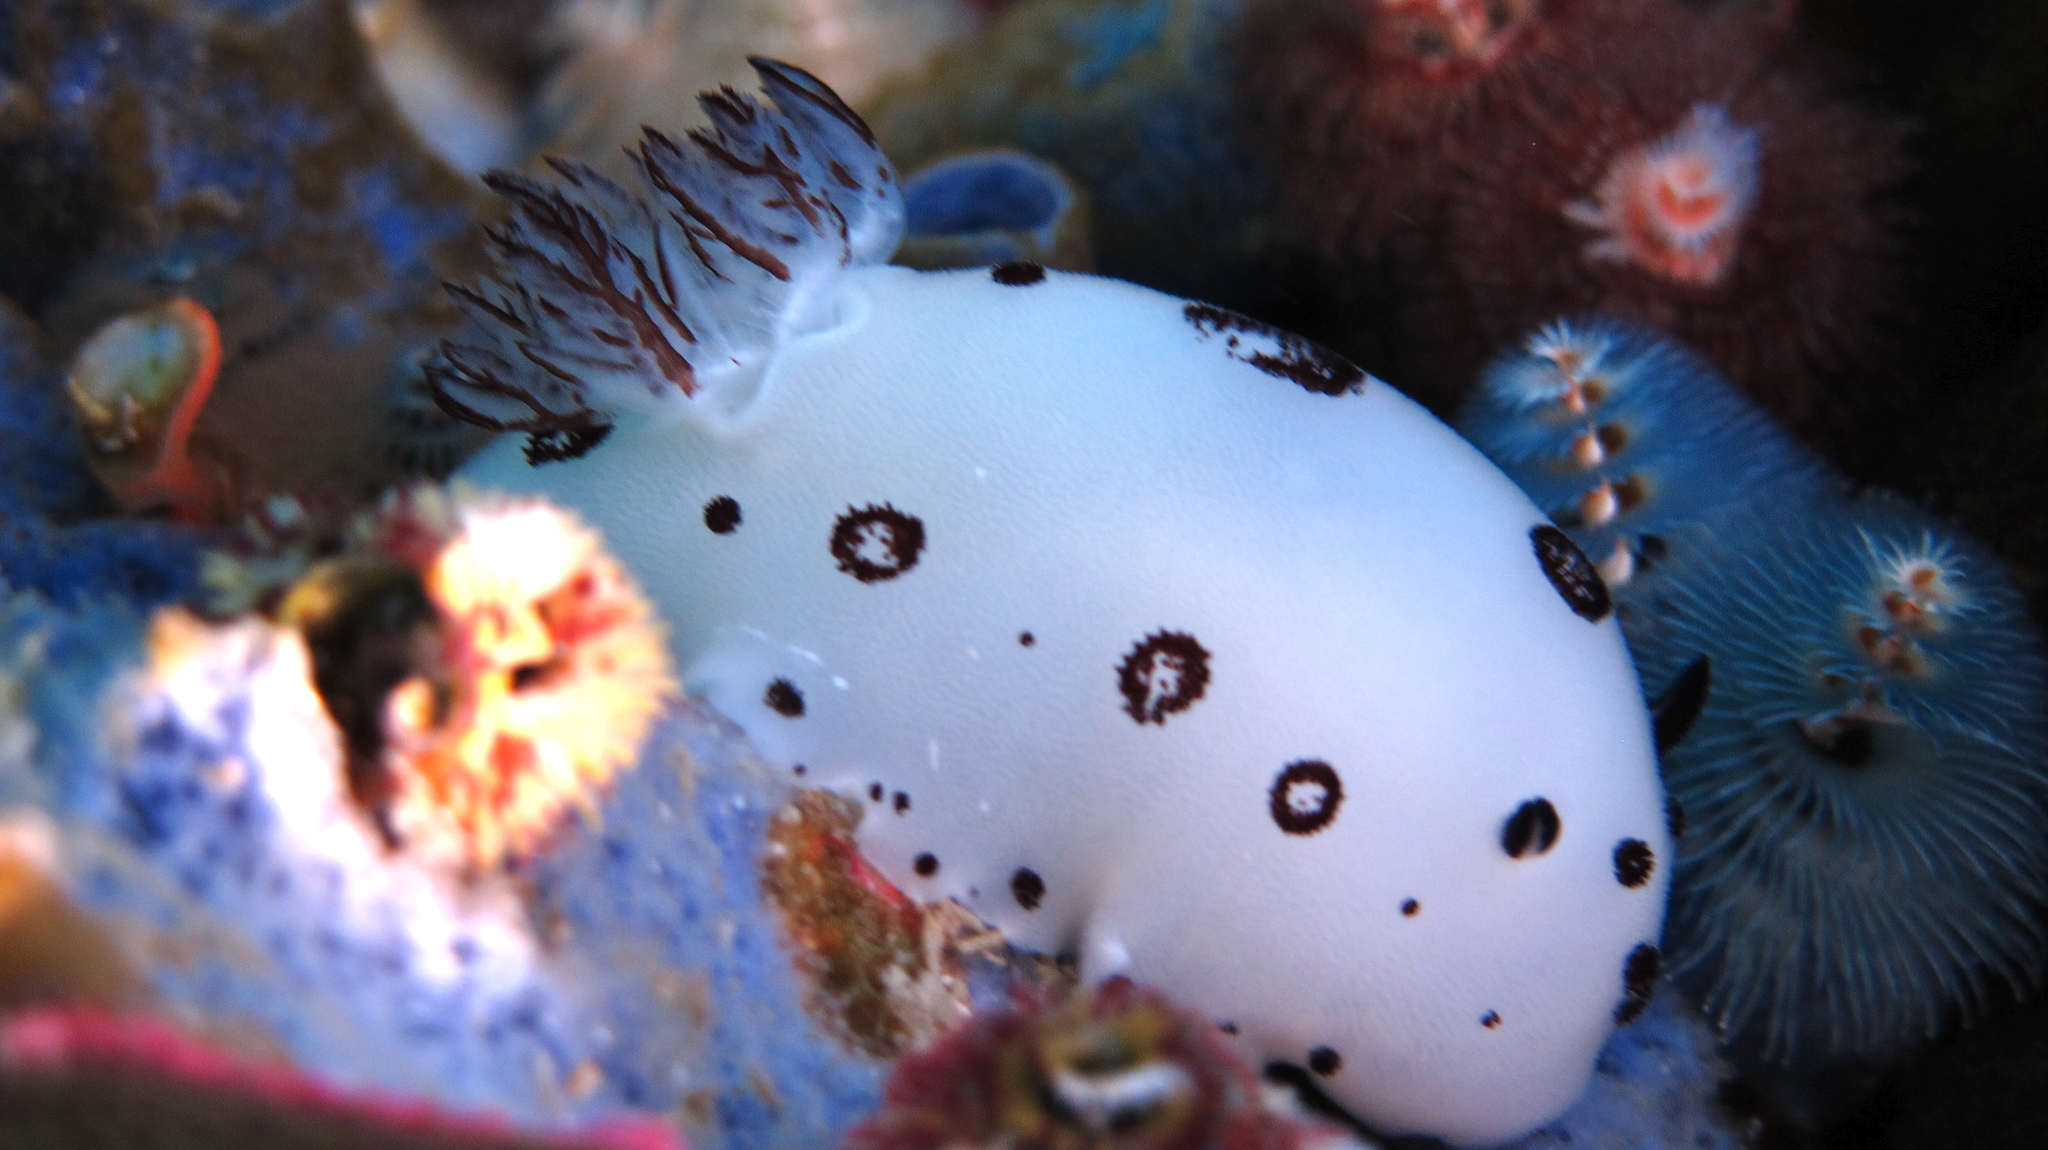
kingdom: Animalia
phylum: Mollusca
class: Gastropoda
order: Nudibranchia
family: Discodorididae
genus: Jorunna
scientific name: Jorunna funebris
